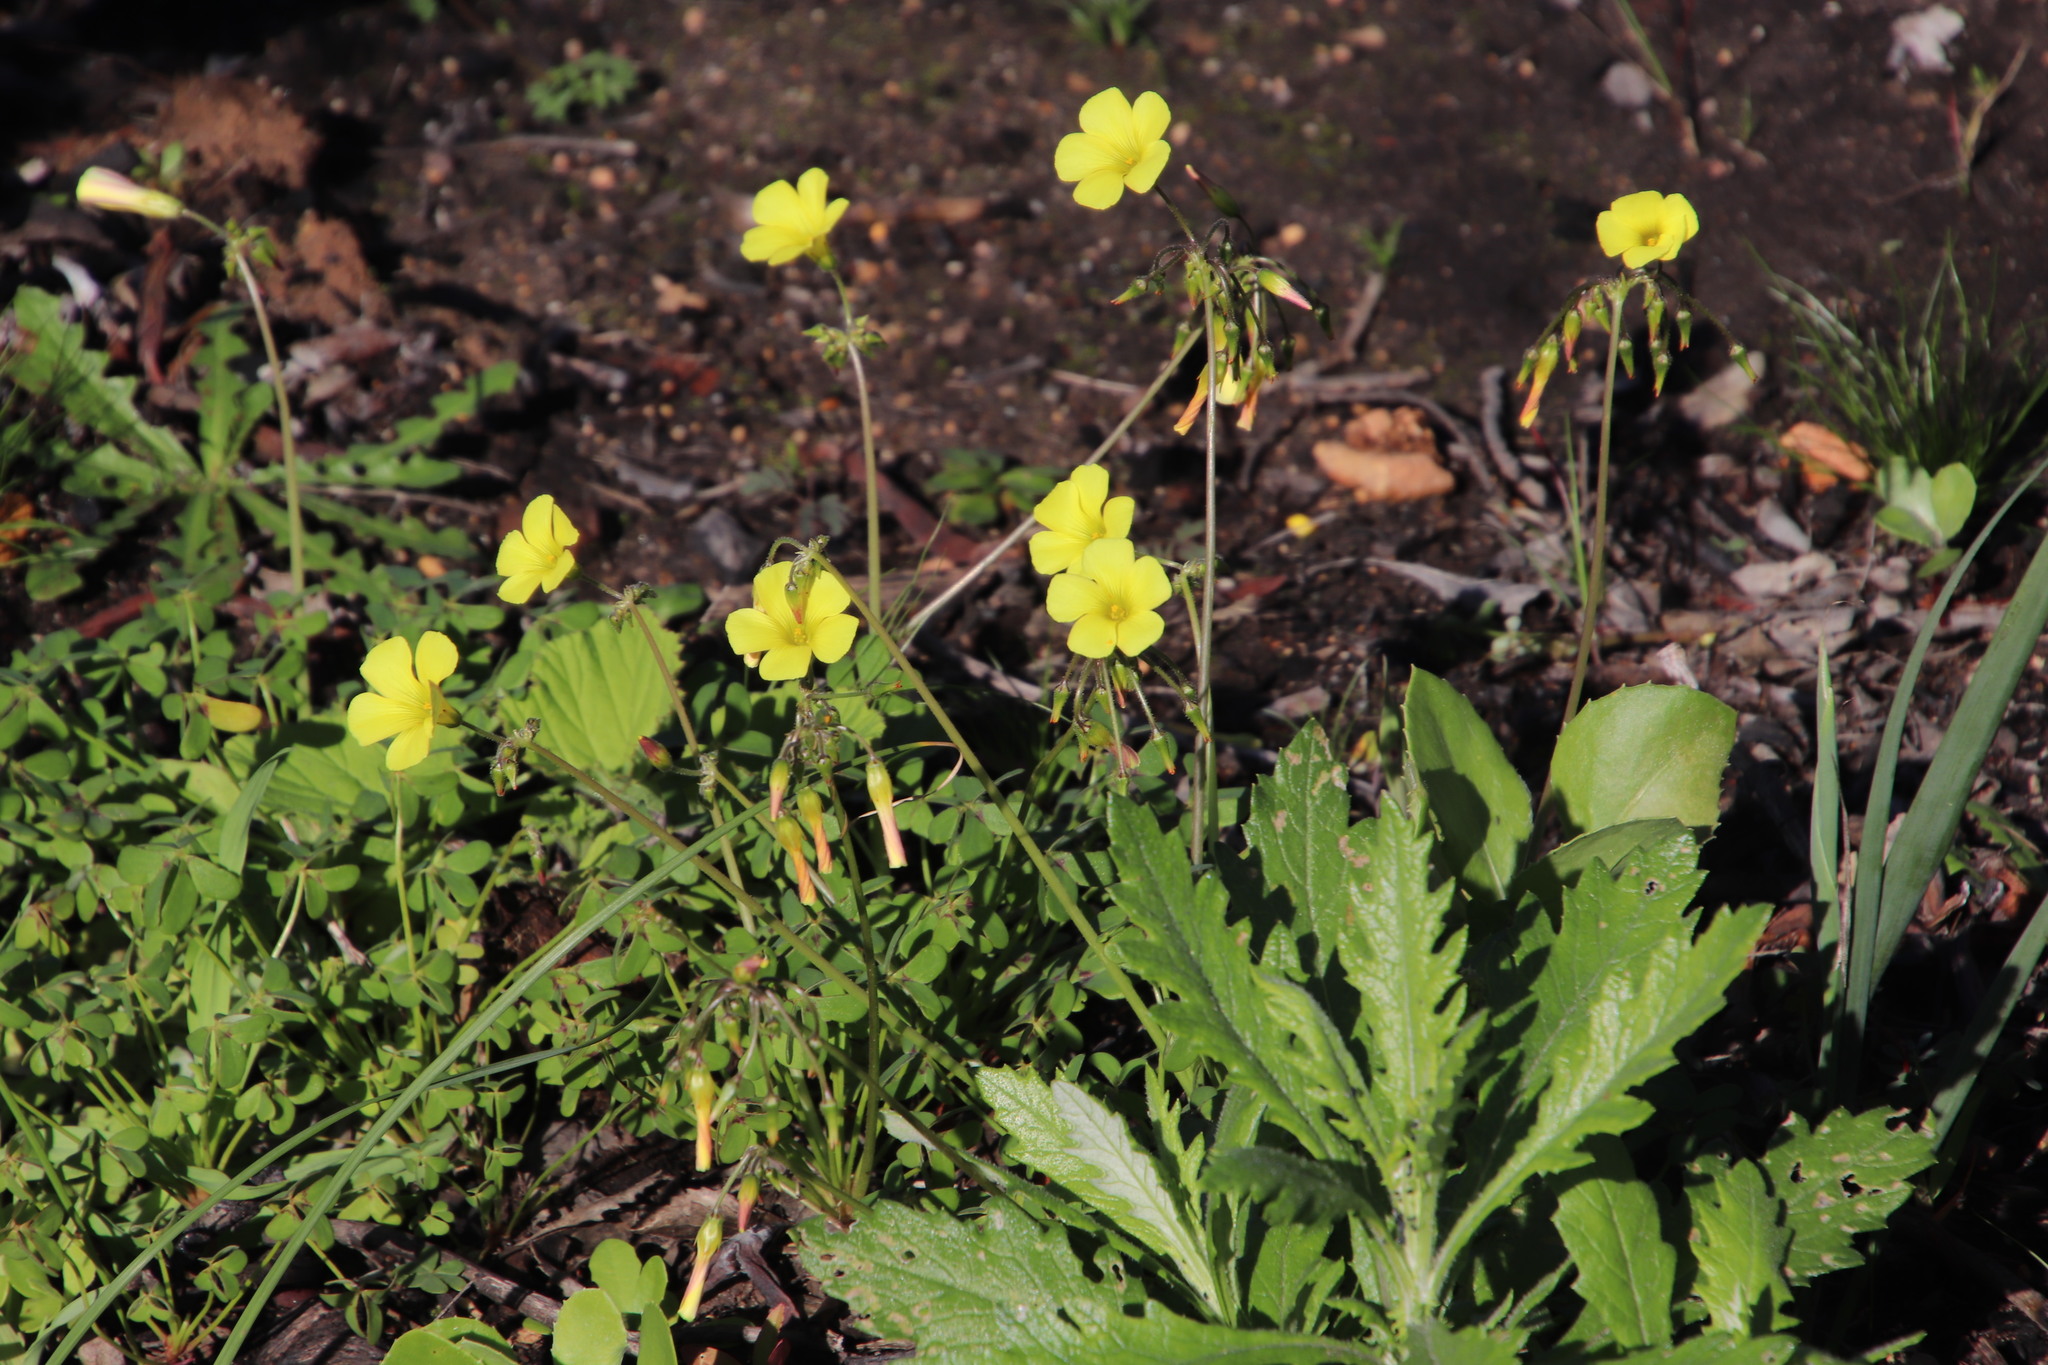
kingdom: Plantae
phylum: Tracheophyta
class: Magnoliopsida
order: Oxalidales
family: Oxalidaceae
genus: Oxalis
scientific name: Oxalis pes-caprae
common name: Bermuda-buttercup
